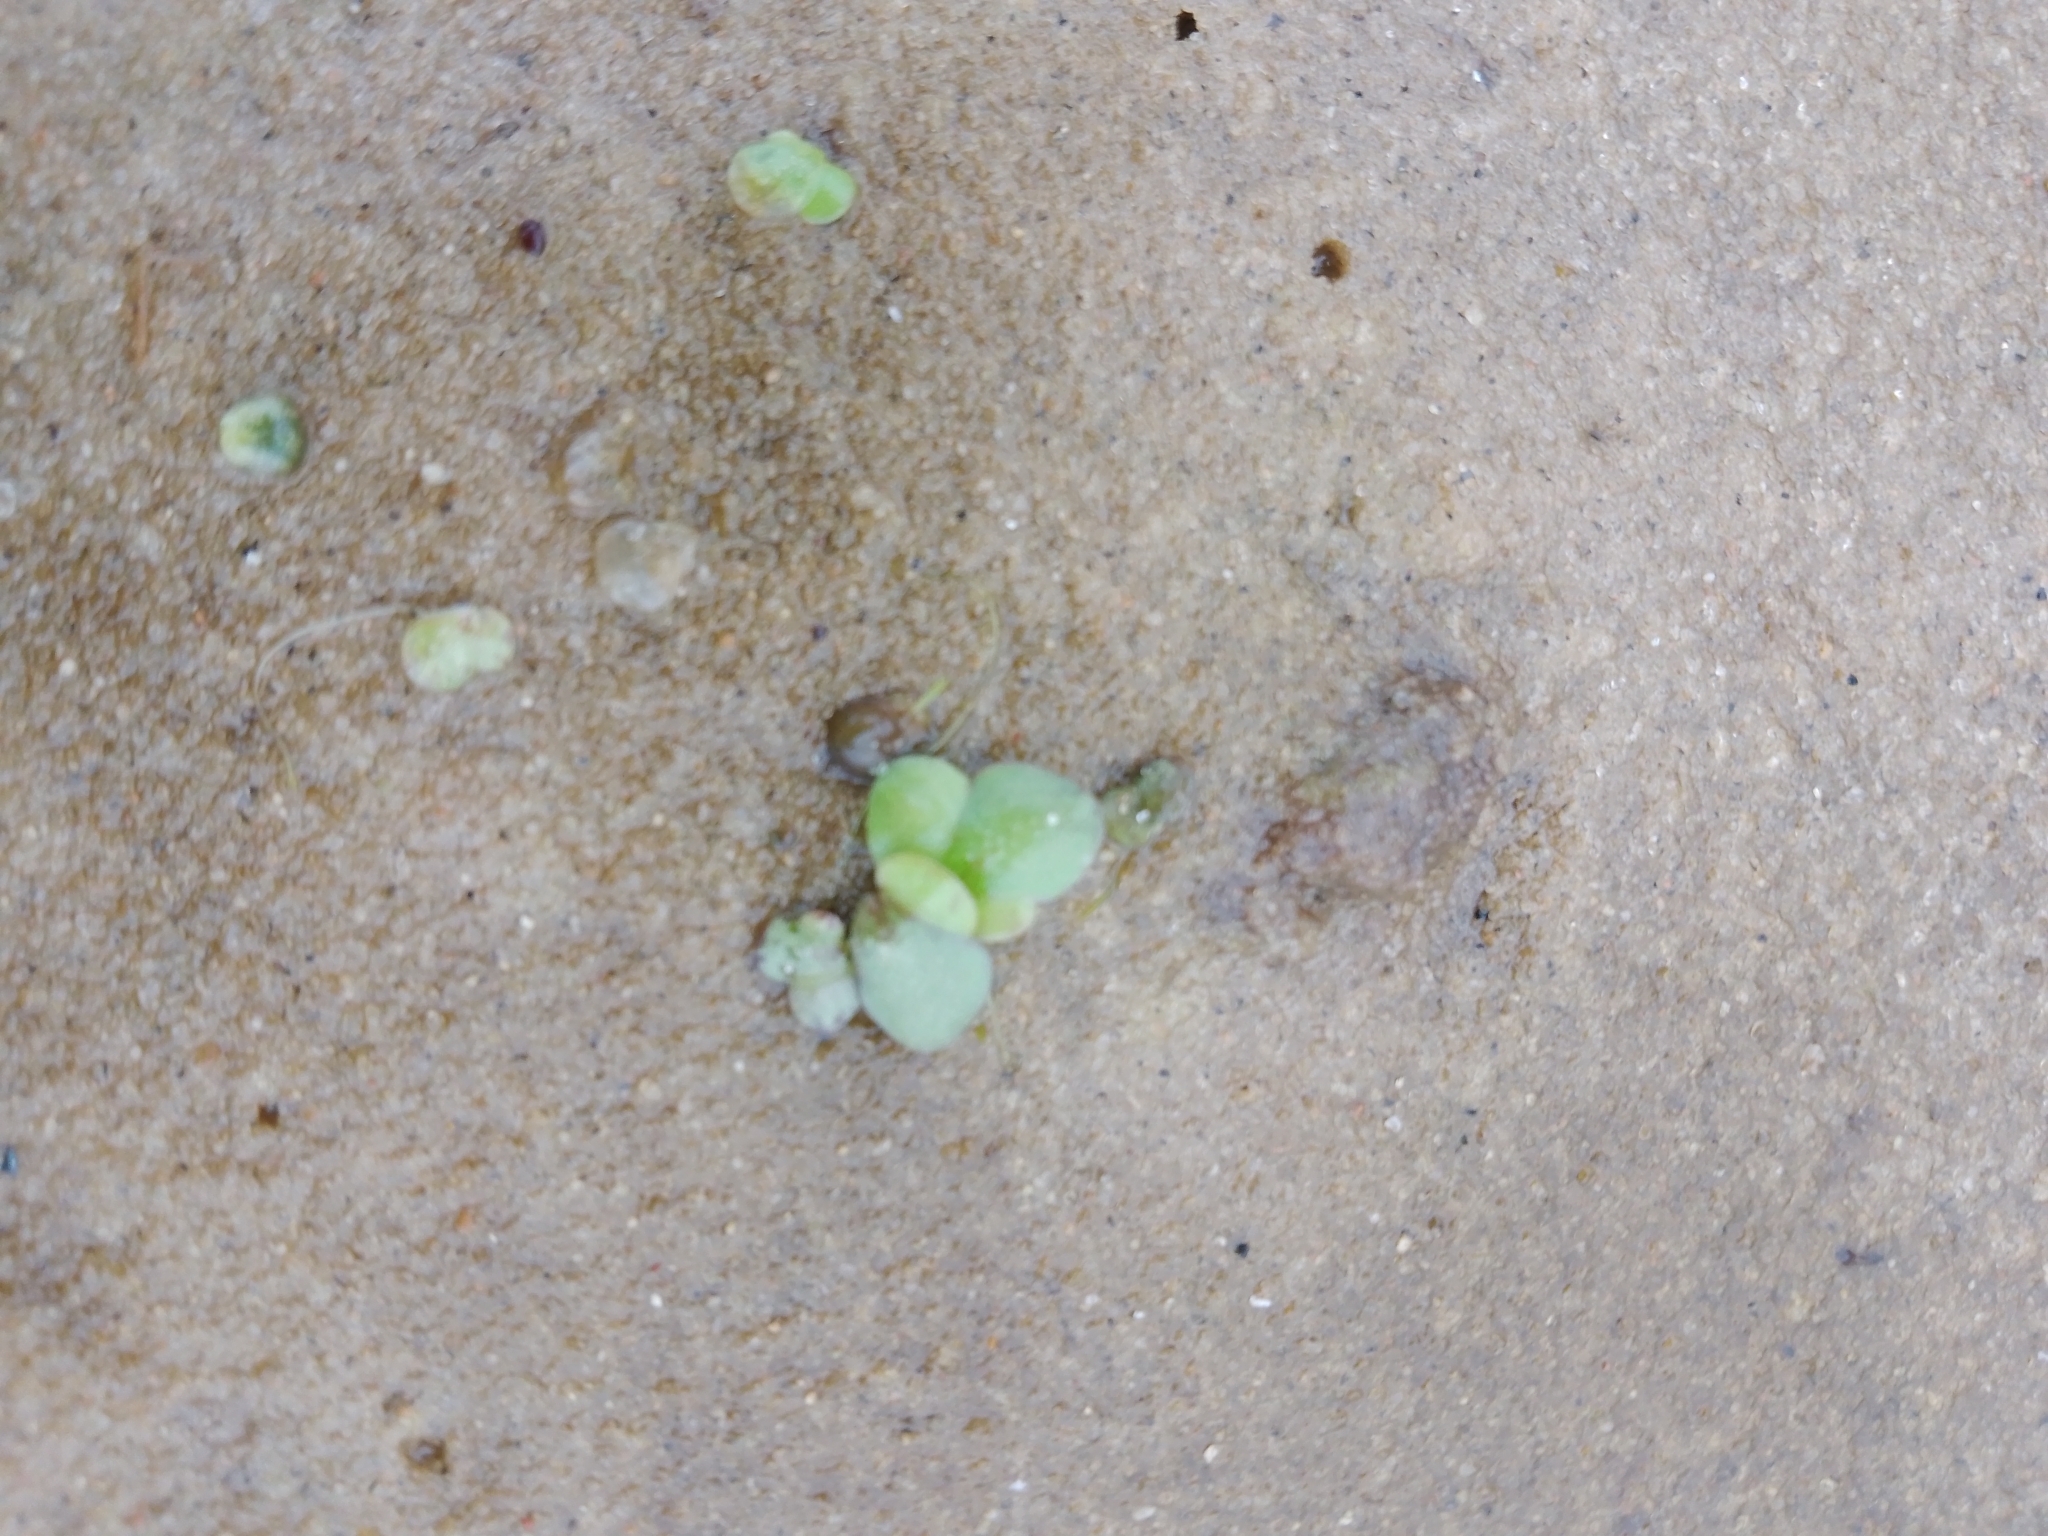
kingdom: Plantae
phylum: Tracheophyta
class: Liliopsida
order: Alismatales
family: Araceae
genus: Lemna
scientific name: Lemna gibba
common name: Fat duckweed
